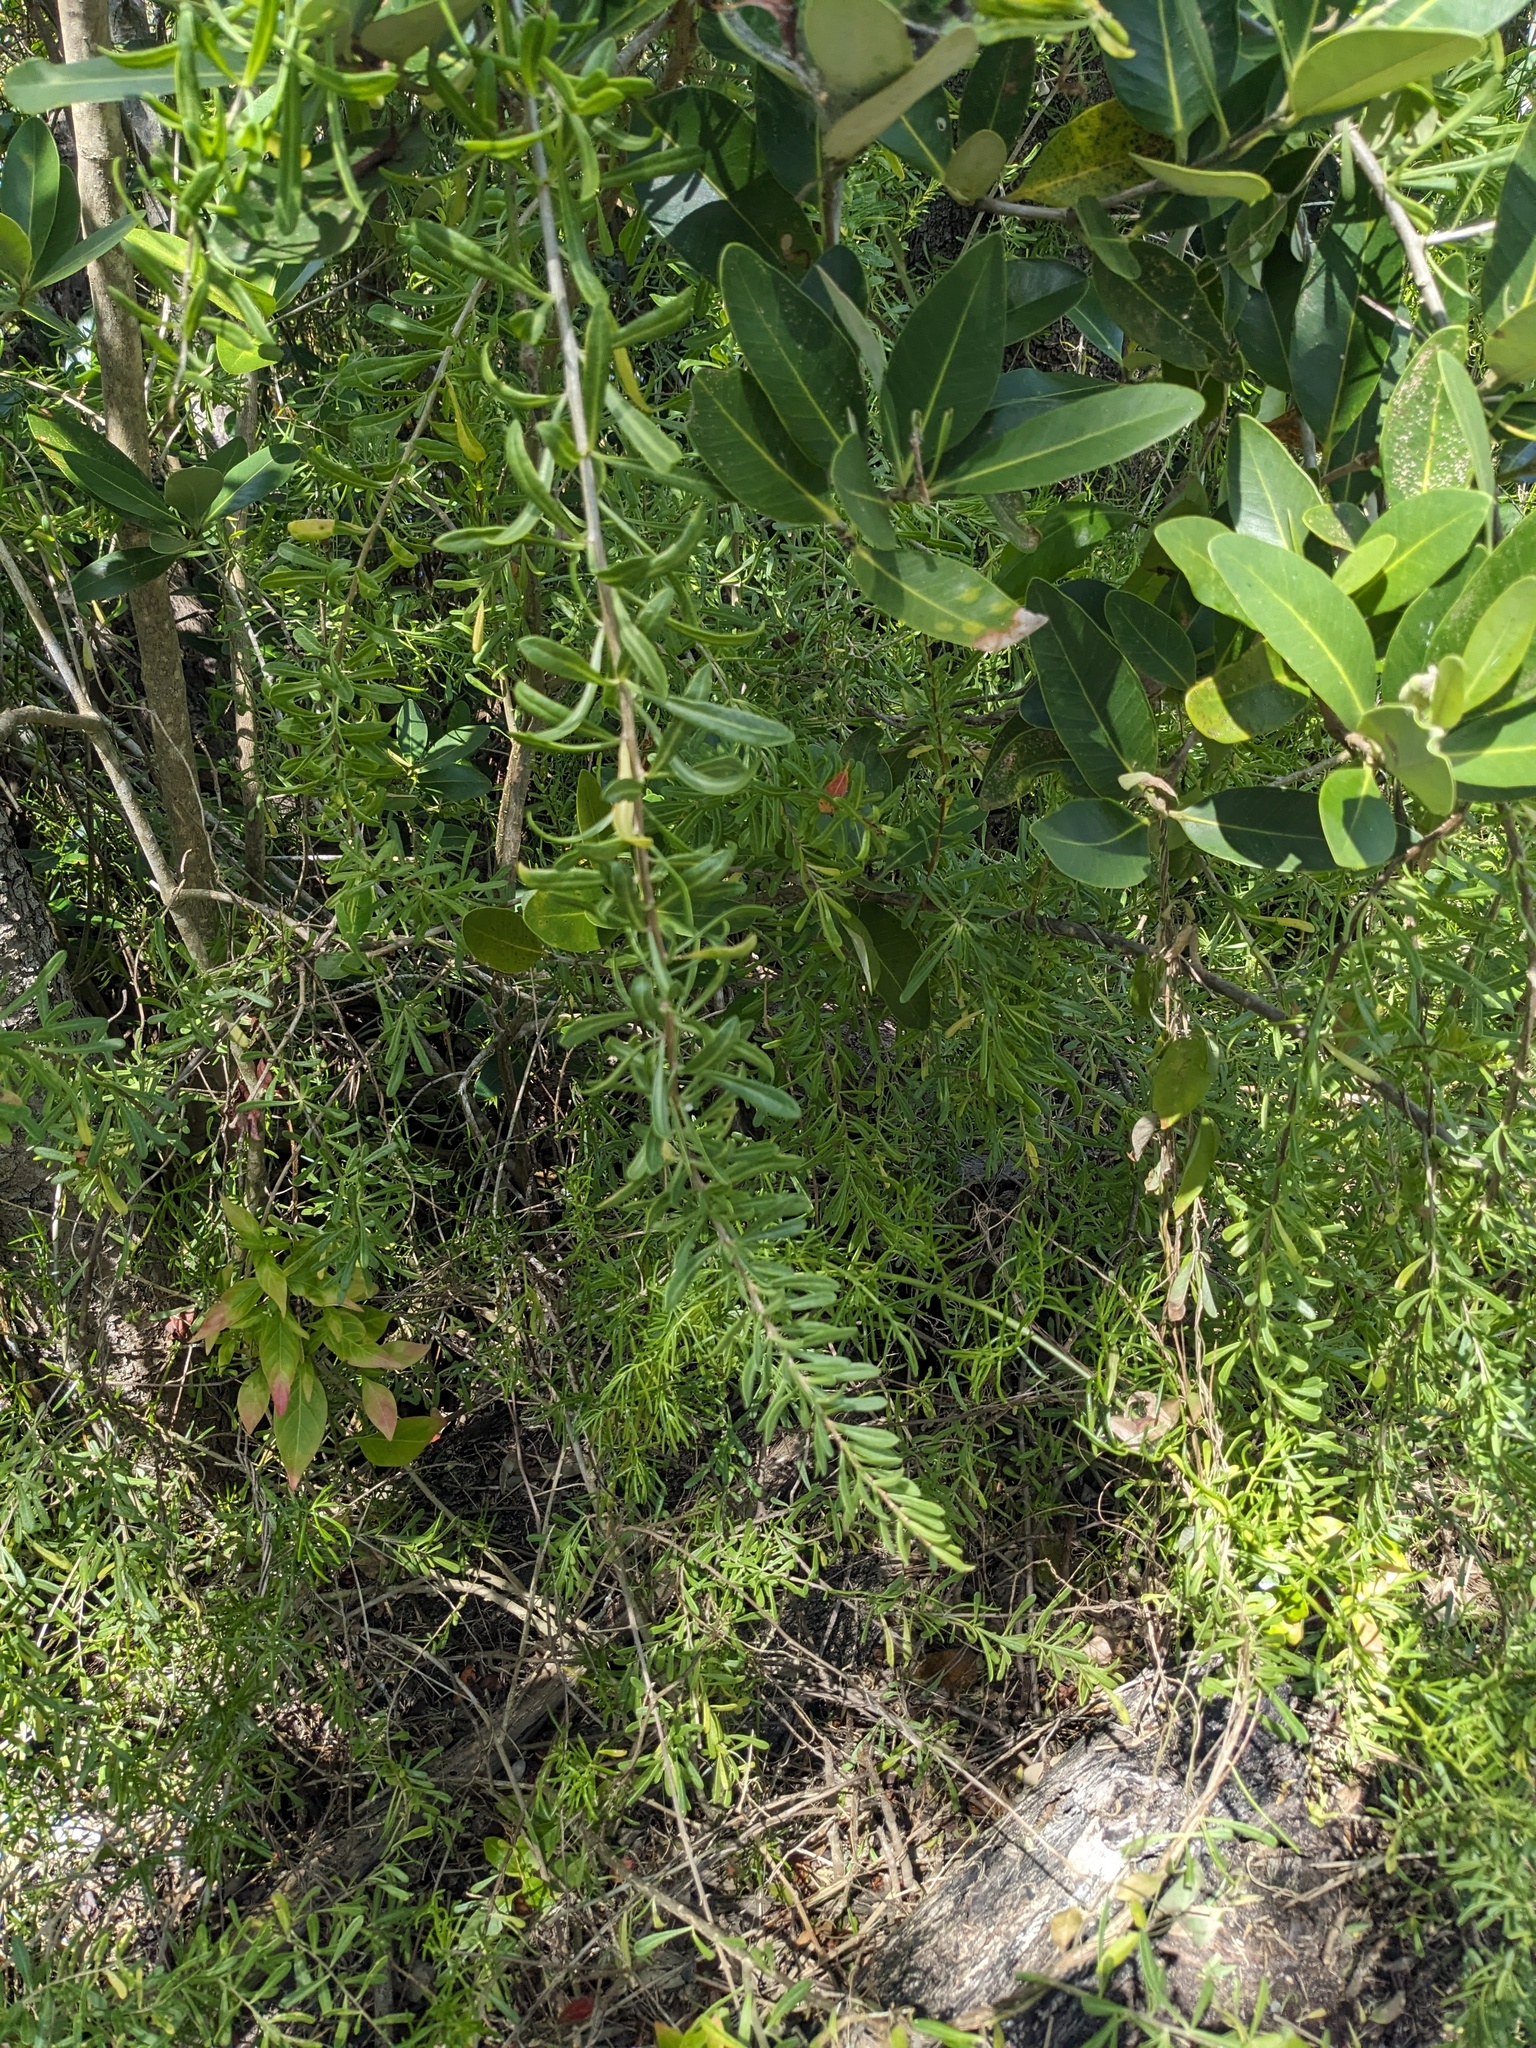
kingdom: Plantae
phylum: Tracheophyta
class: Magnoliopsida
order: Solanales
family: Solanaceae
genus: Lycium
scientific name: Lycium carolinianum
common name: Christmasberry
